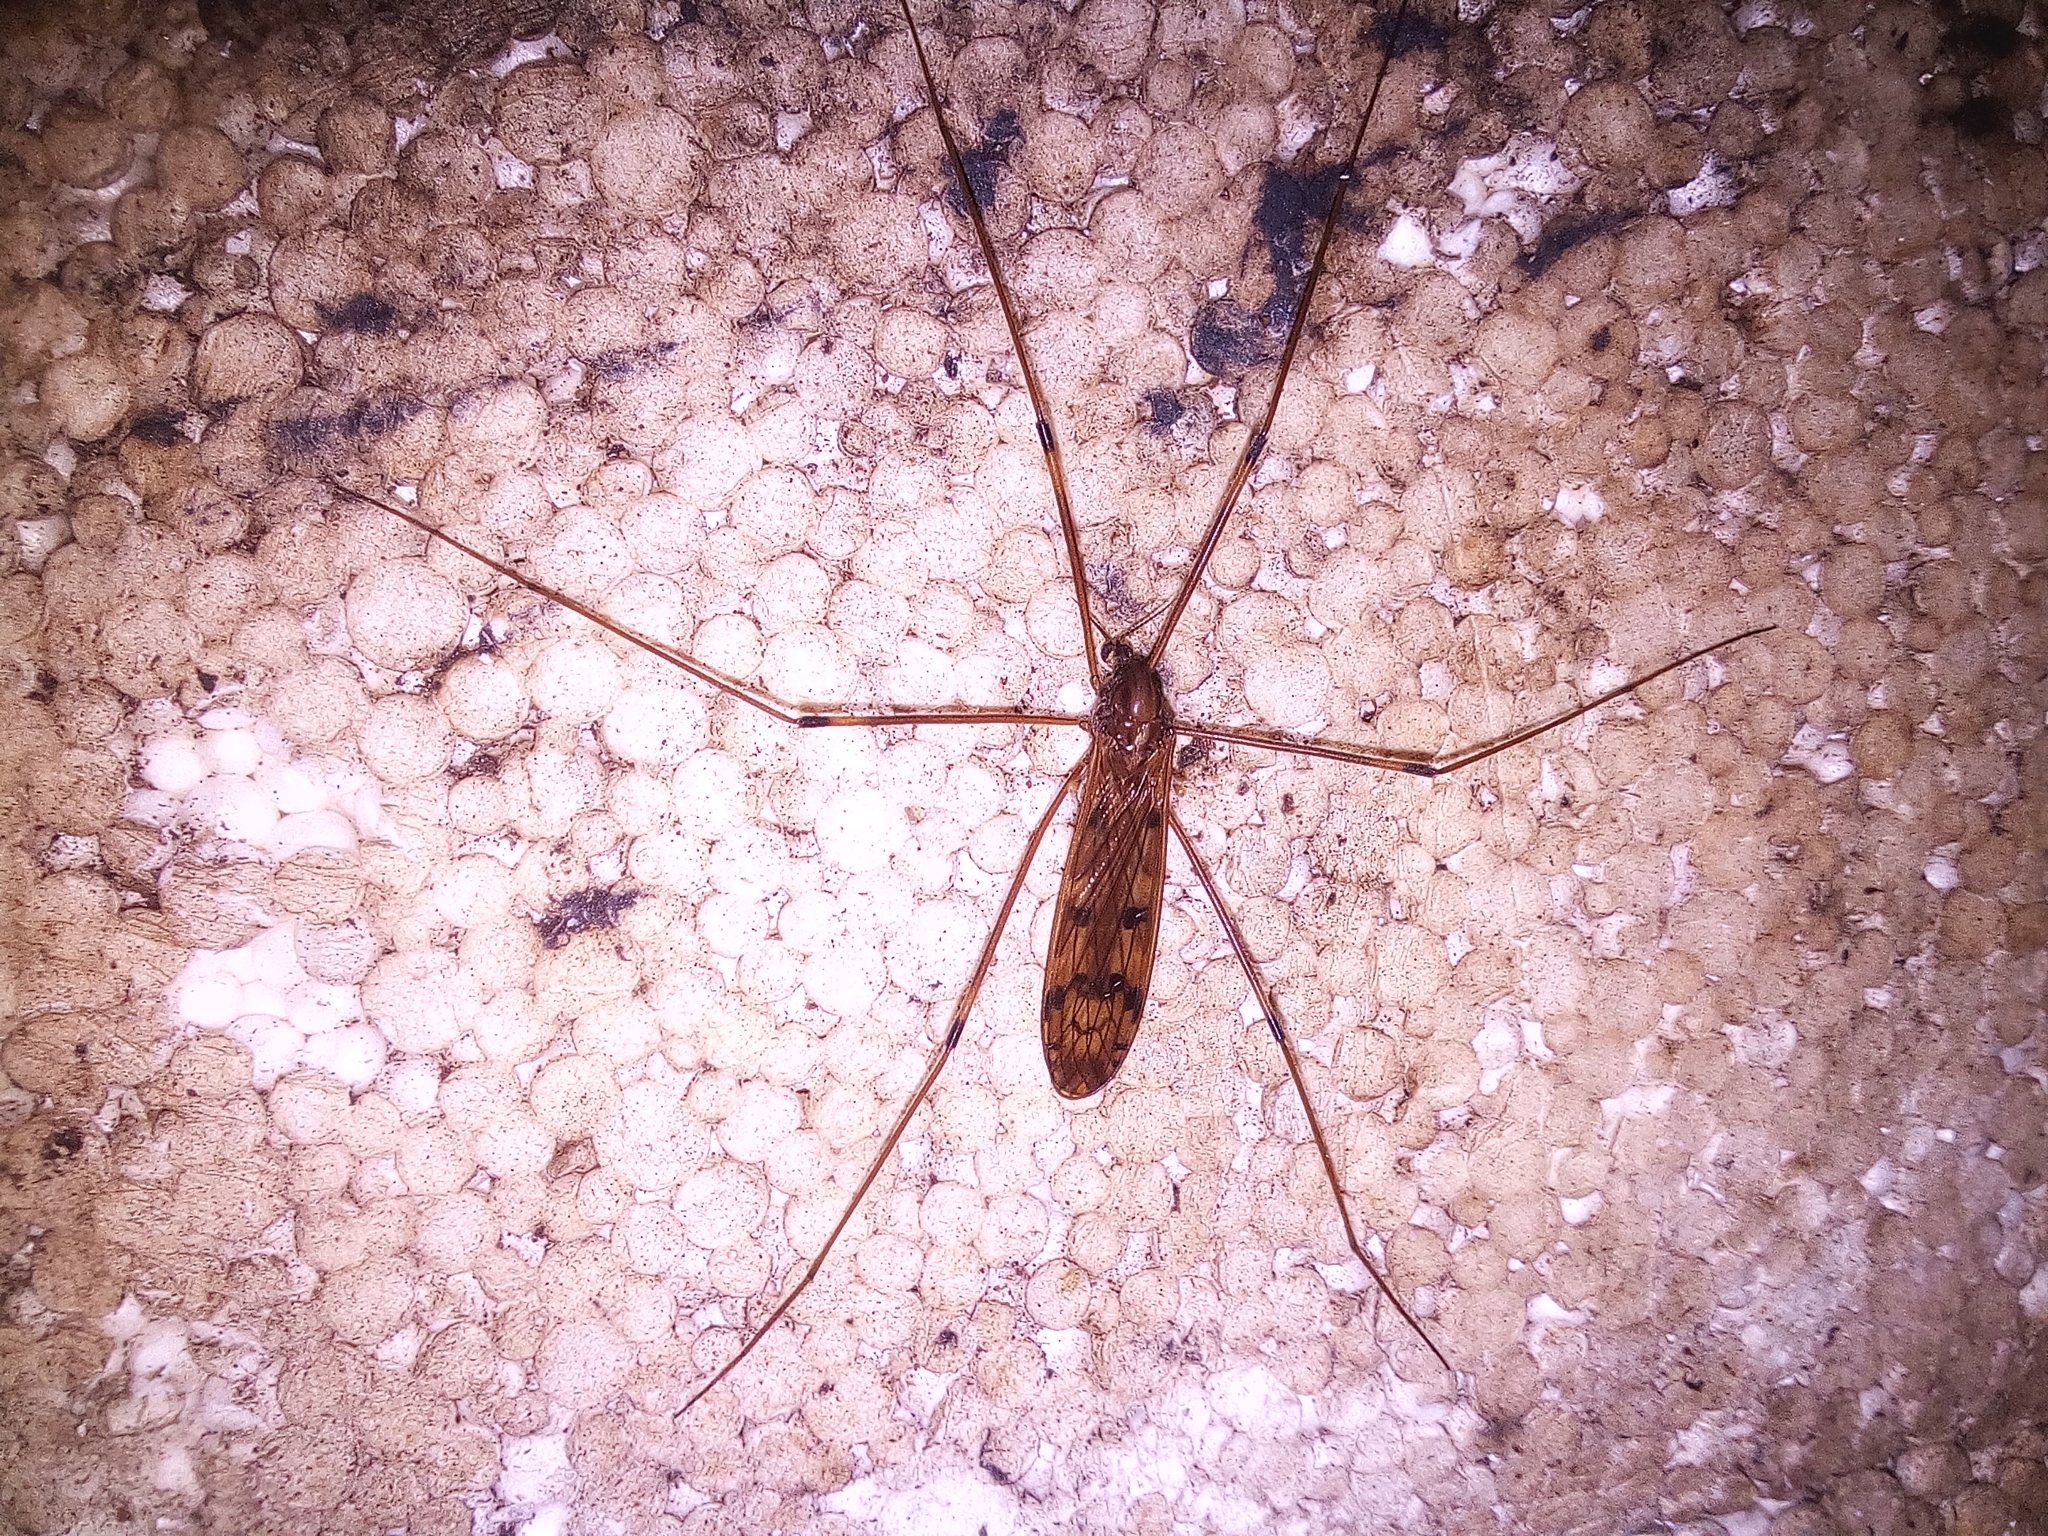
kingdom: Animalia
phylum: Arthropoda
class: Insecta
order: Diptera
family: Limoniidae
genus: Metalimnobia
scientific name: Metalimnobia quadrinotata
